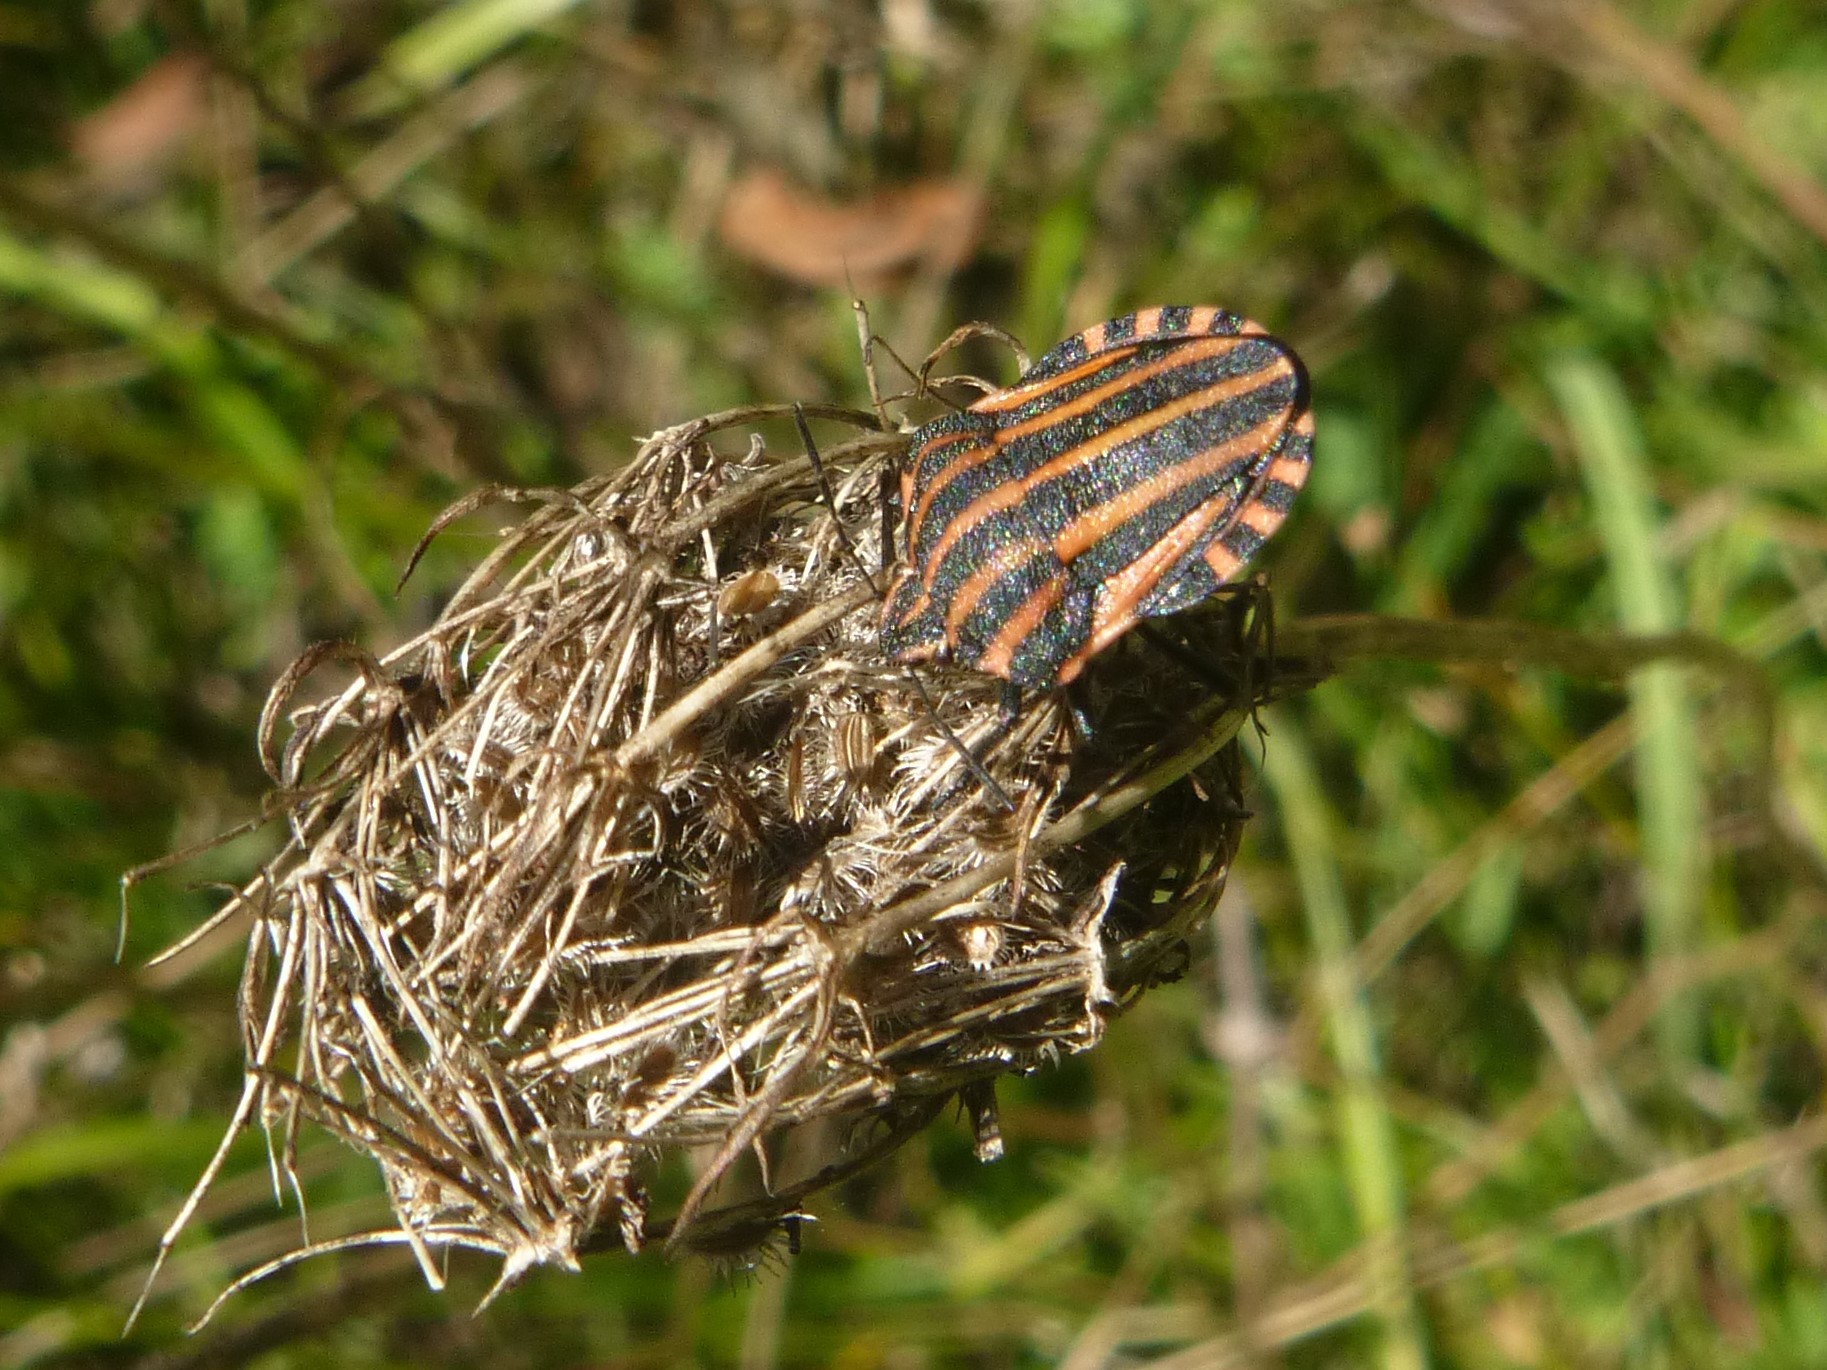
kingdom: Animalia
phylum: Arthropoda
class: Insecta
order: Hemiptera
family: Pentatomidae
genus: Graphosoma
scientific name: Graphosoma italicum
